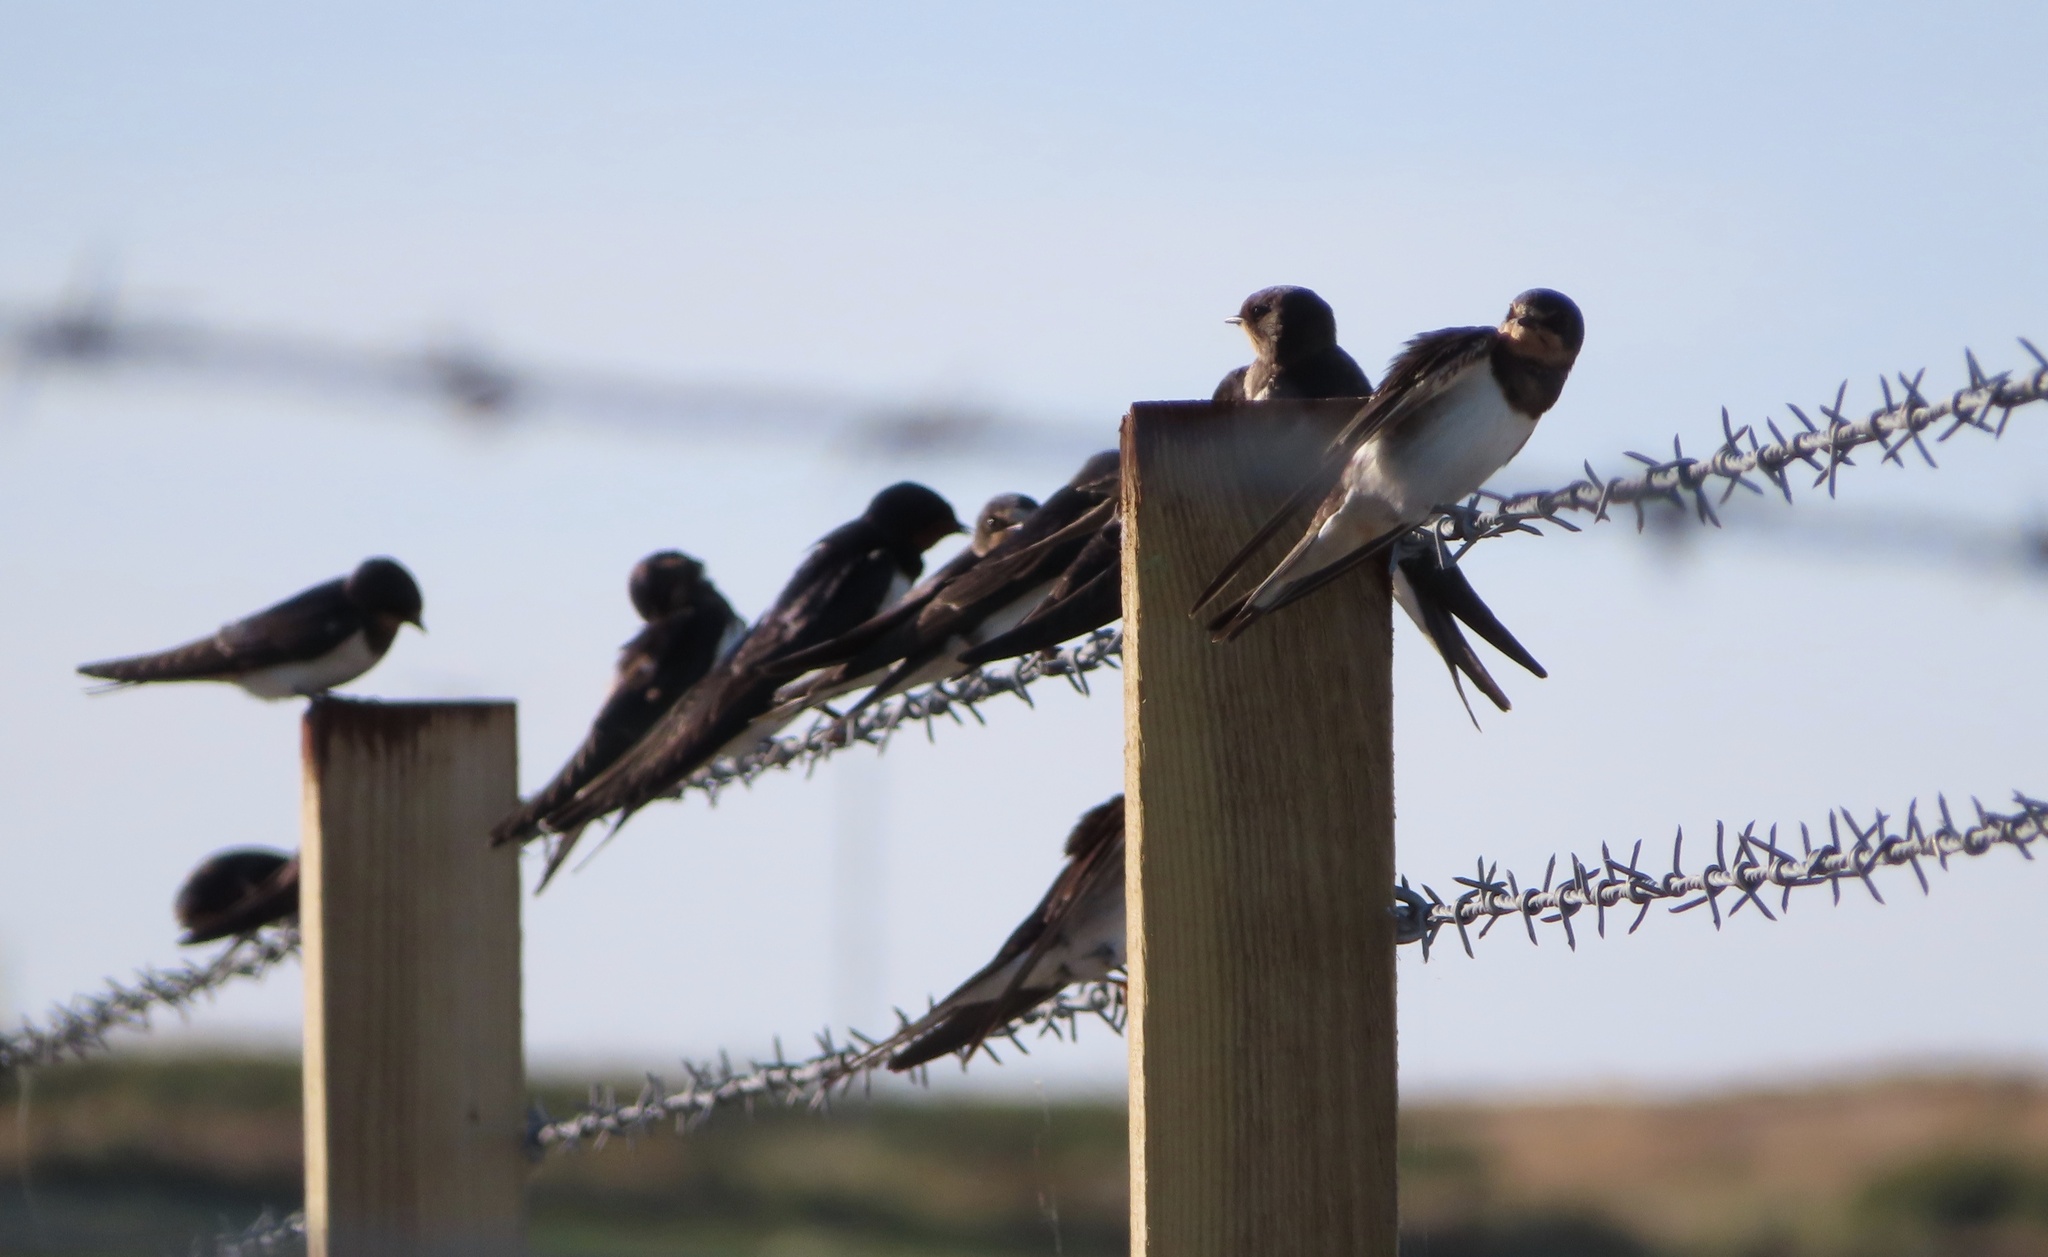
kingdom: Animalia
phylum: Chordata
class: Aves
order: Passeriformes
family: Hirundinidae
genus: Hirundo
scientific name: Hirundo rustica
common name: Barn swallow
